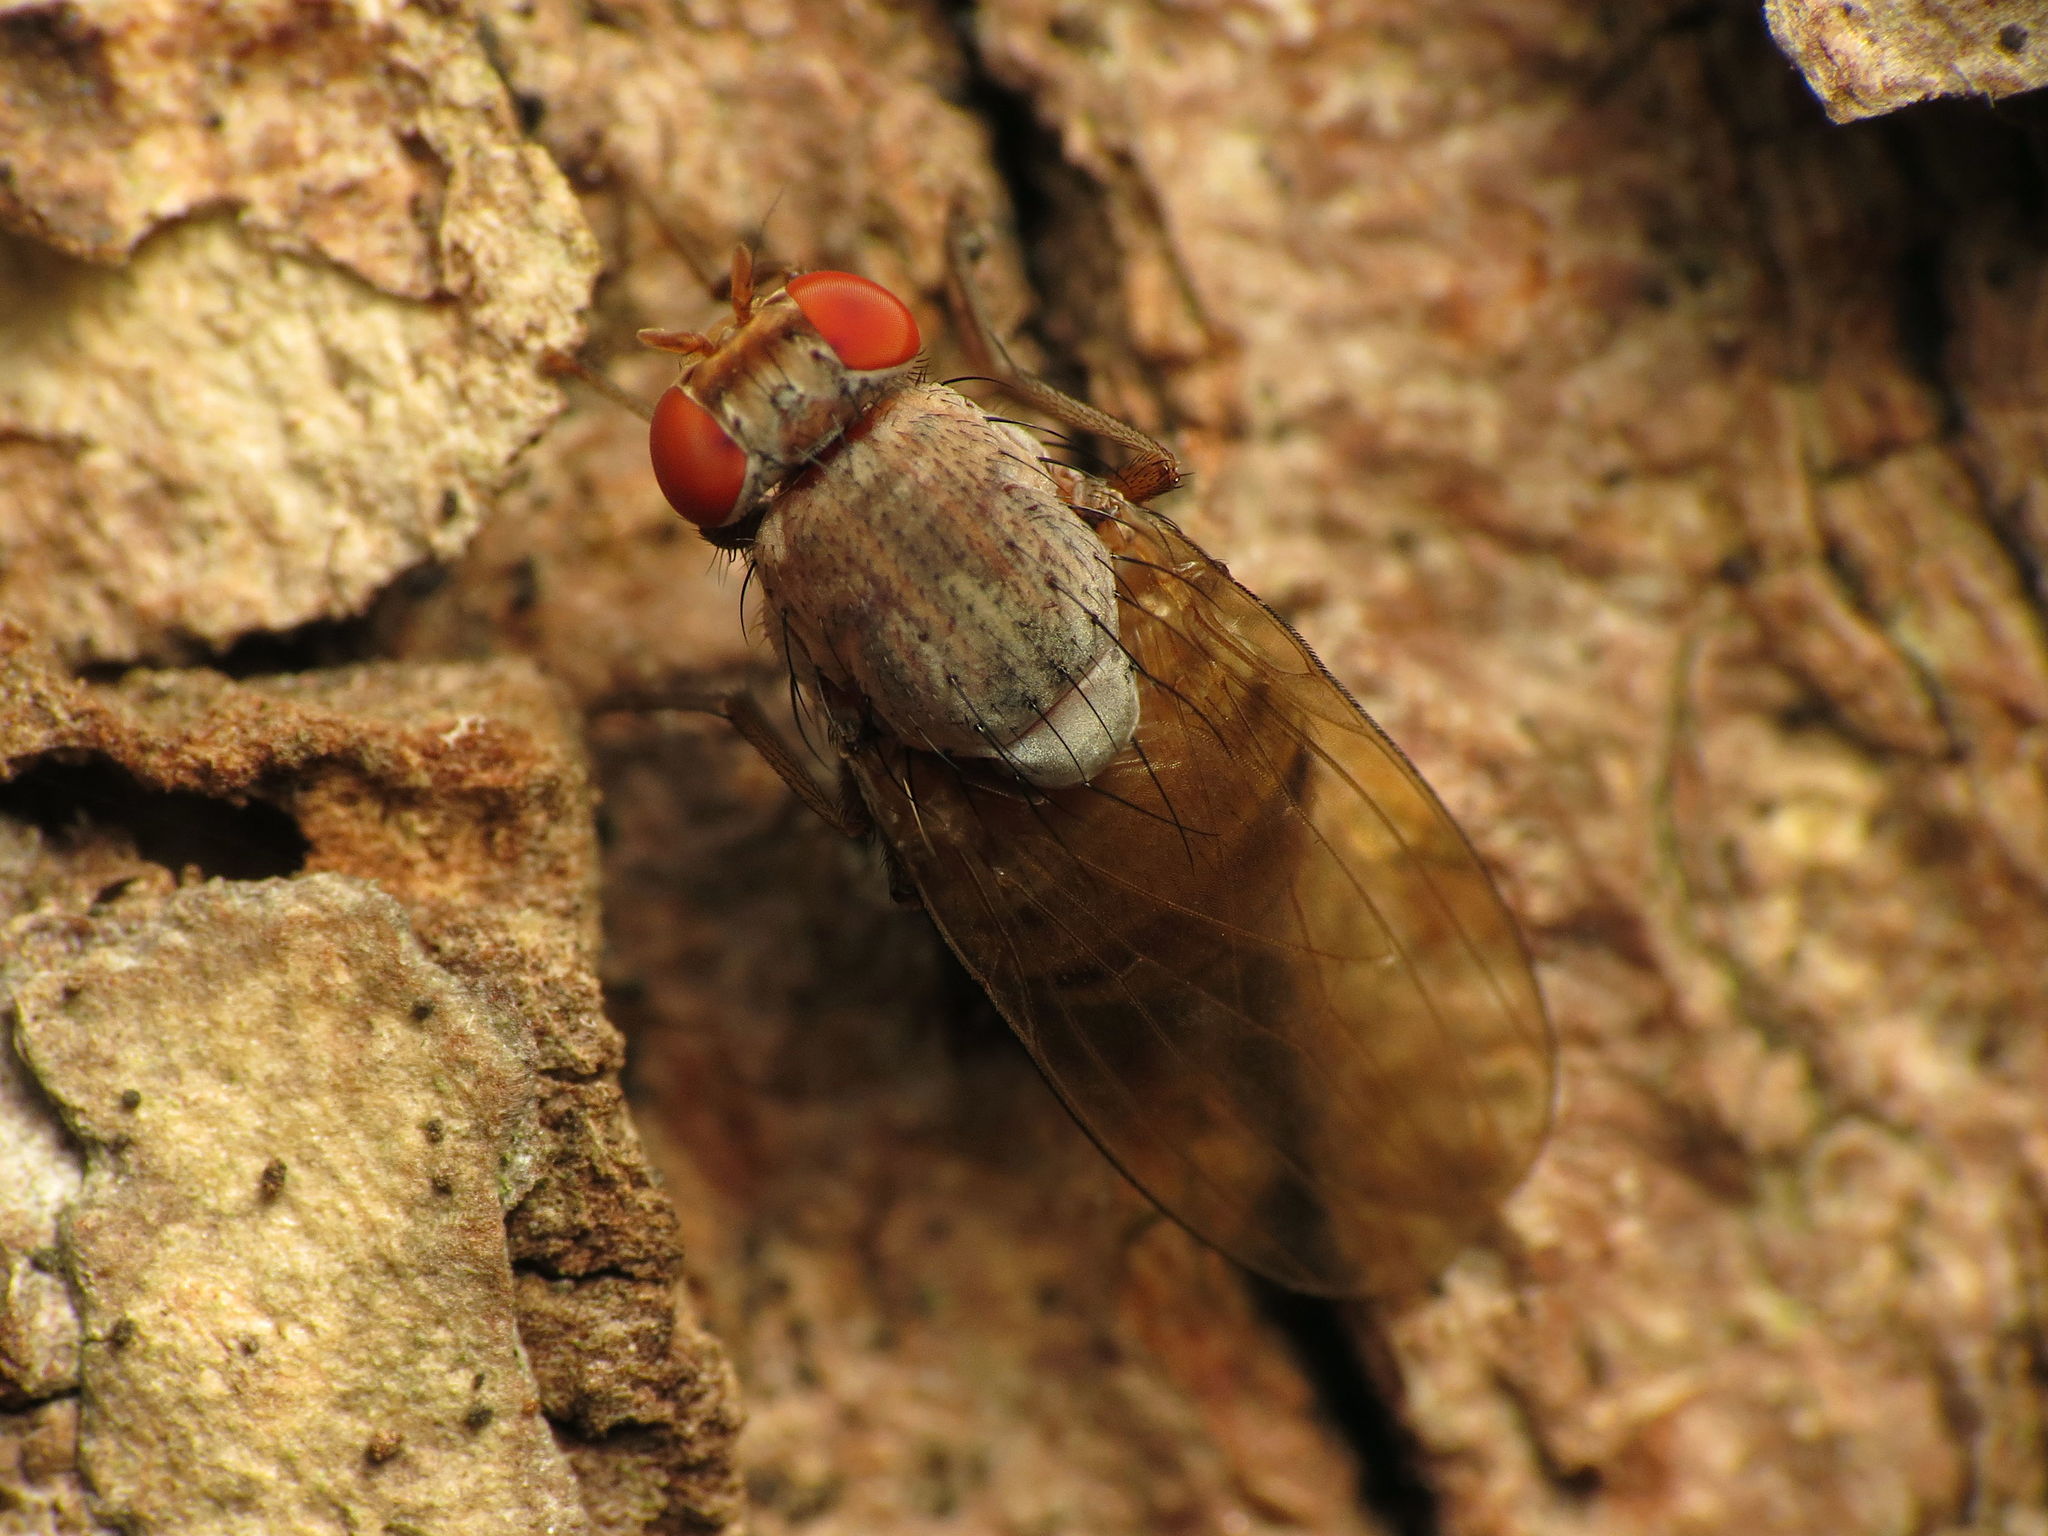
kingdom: Animalia
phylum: Arthropoda
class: Insecta
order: Diptera
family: Lauxaniidae
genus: Minettia
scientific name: Minettia magna
